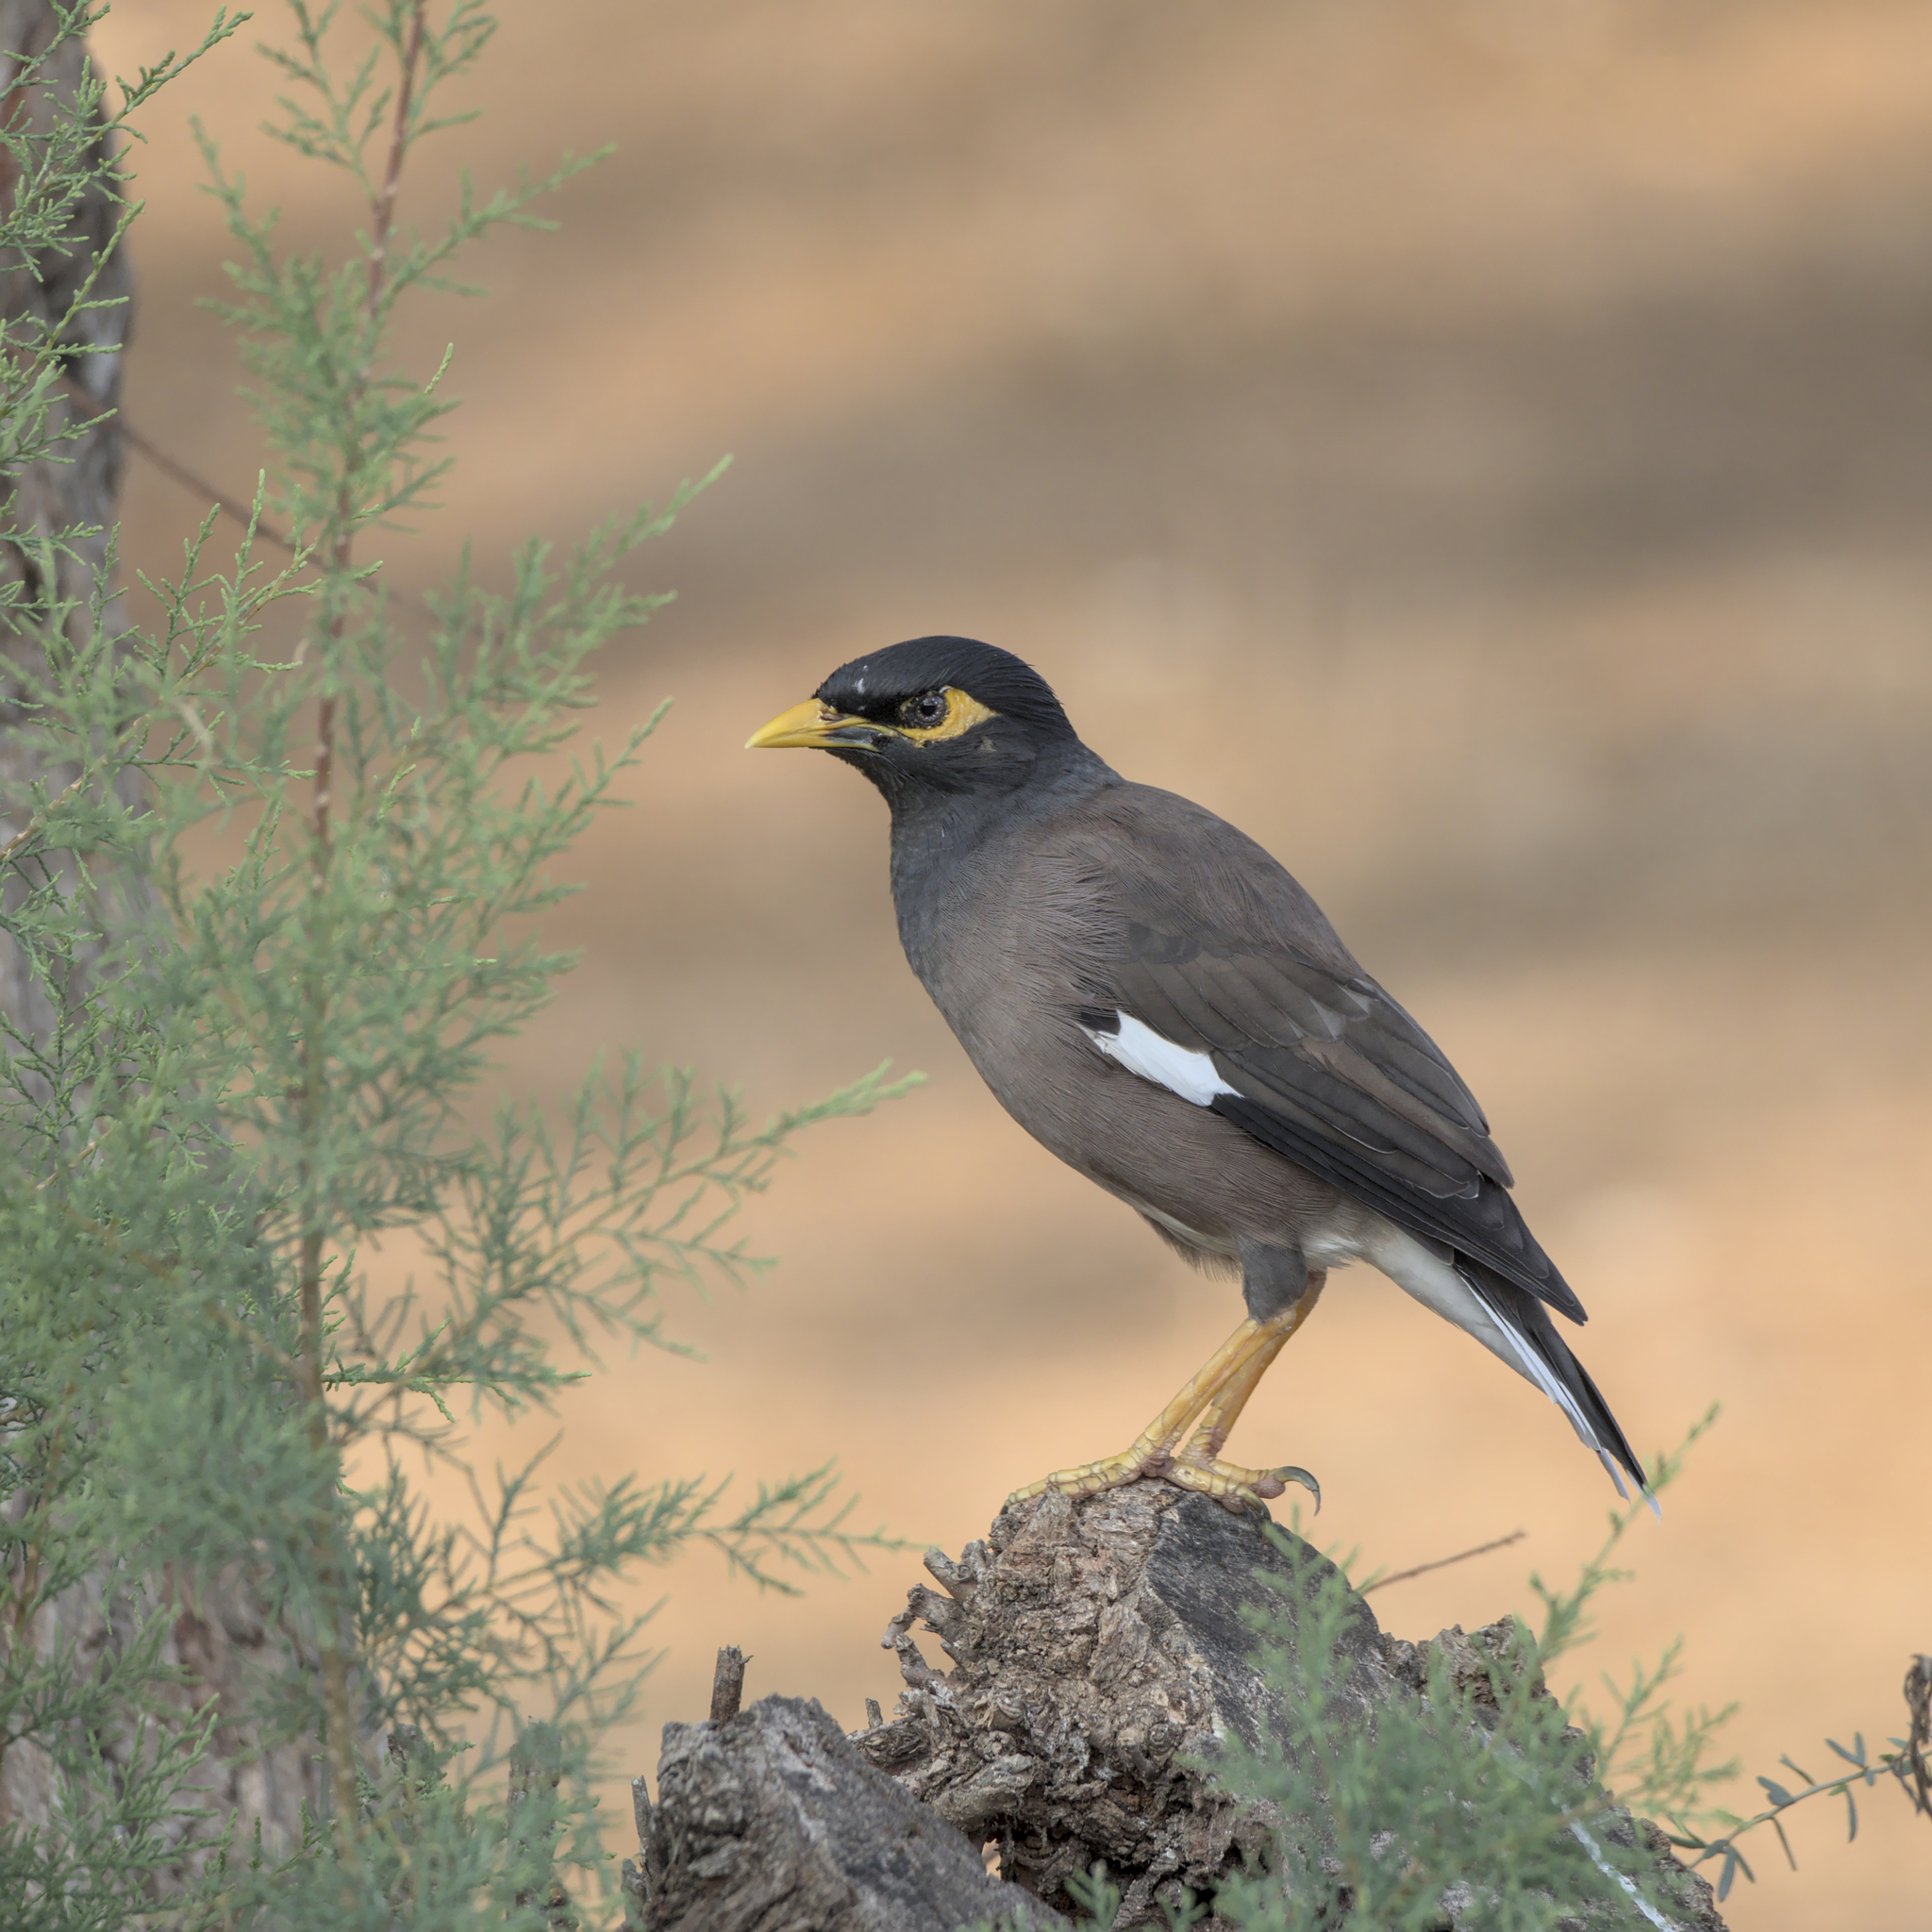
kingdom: Animalia
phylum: Chordata
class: Aves
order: Passeriformes
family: Sturnidae
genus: Acridotheres
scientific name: Acridotheres tristis
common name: Common myna
